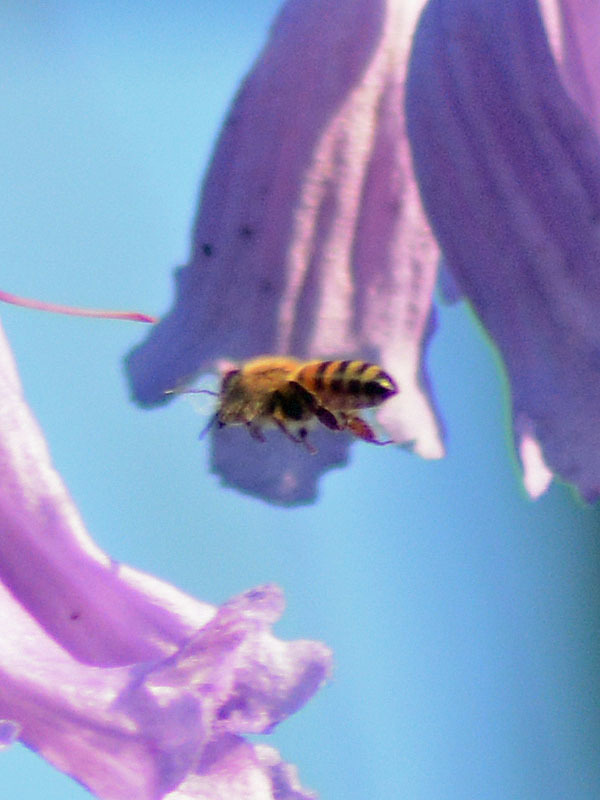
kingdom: Animalia
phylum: Arthropoda
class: Insecta
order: Hymenoptera
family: Apidae
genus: Apis
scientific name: Apis mellifera
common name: Honey bee
